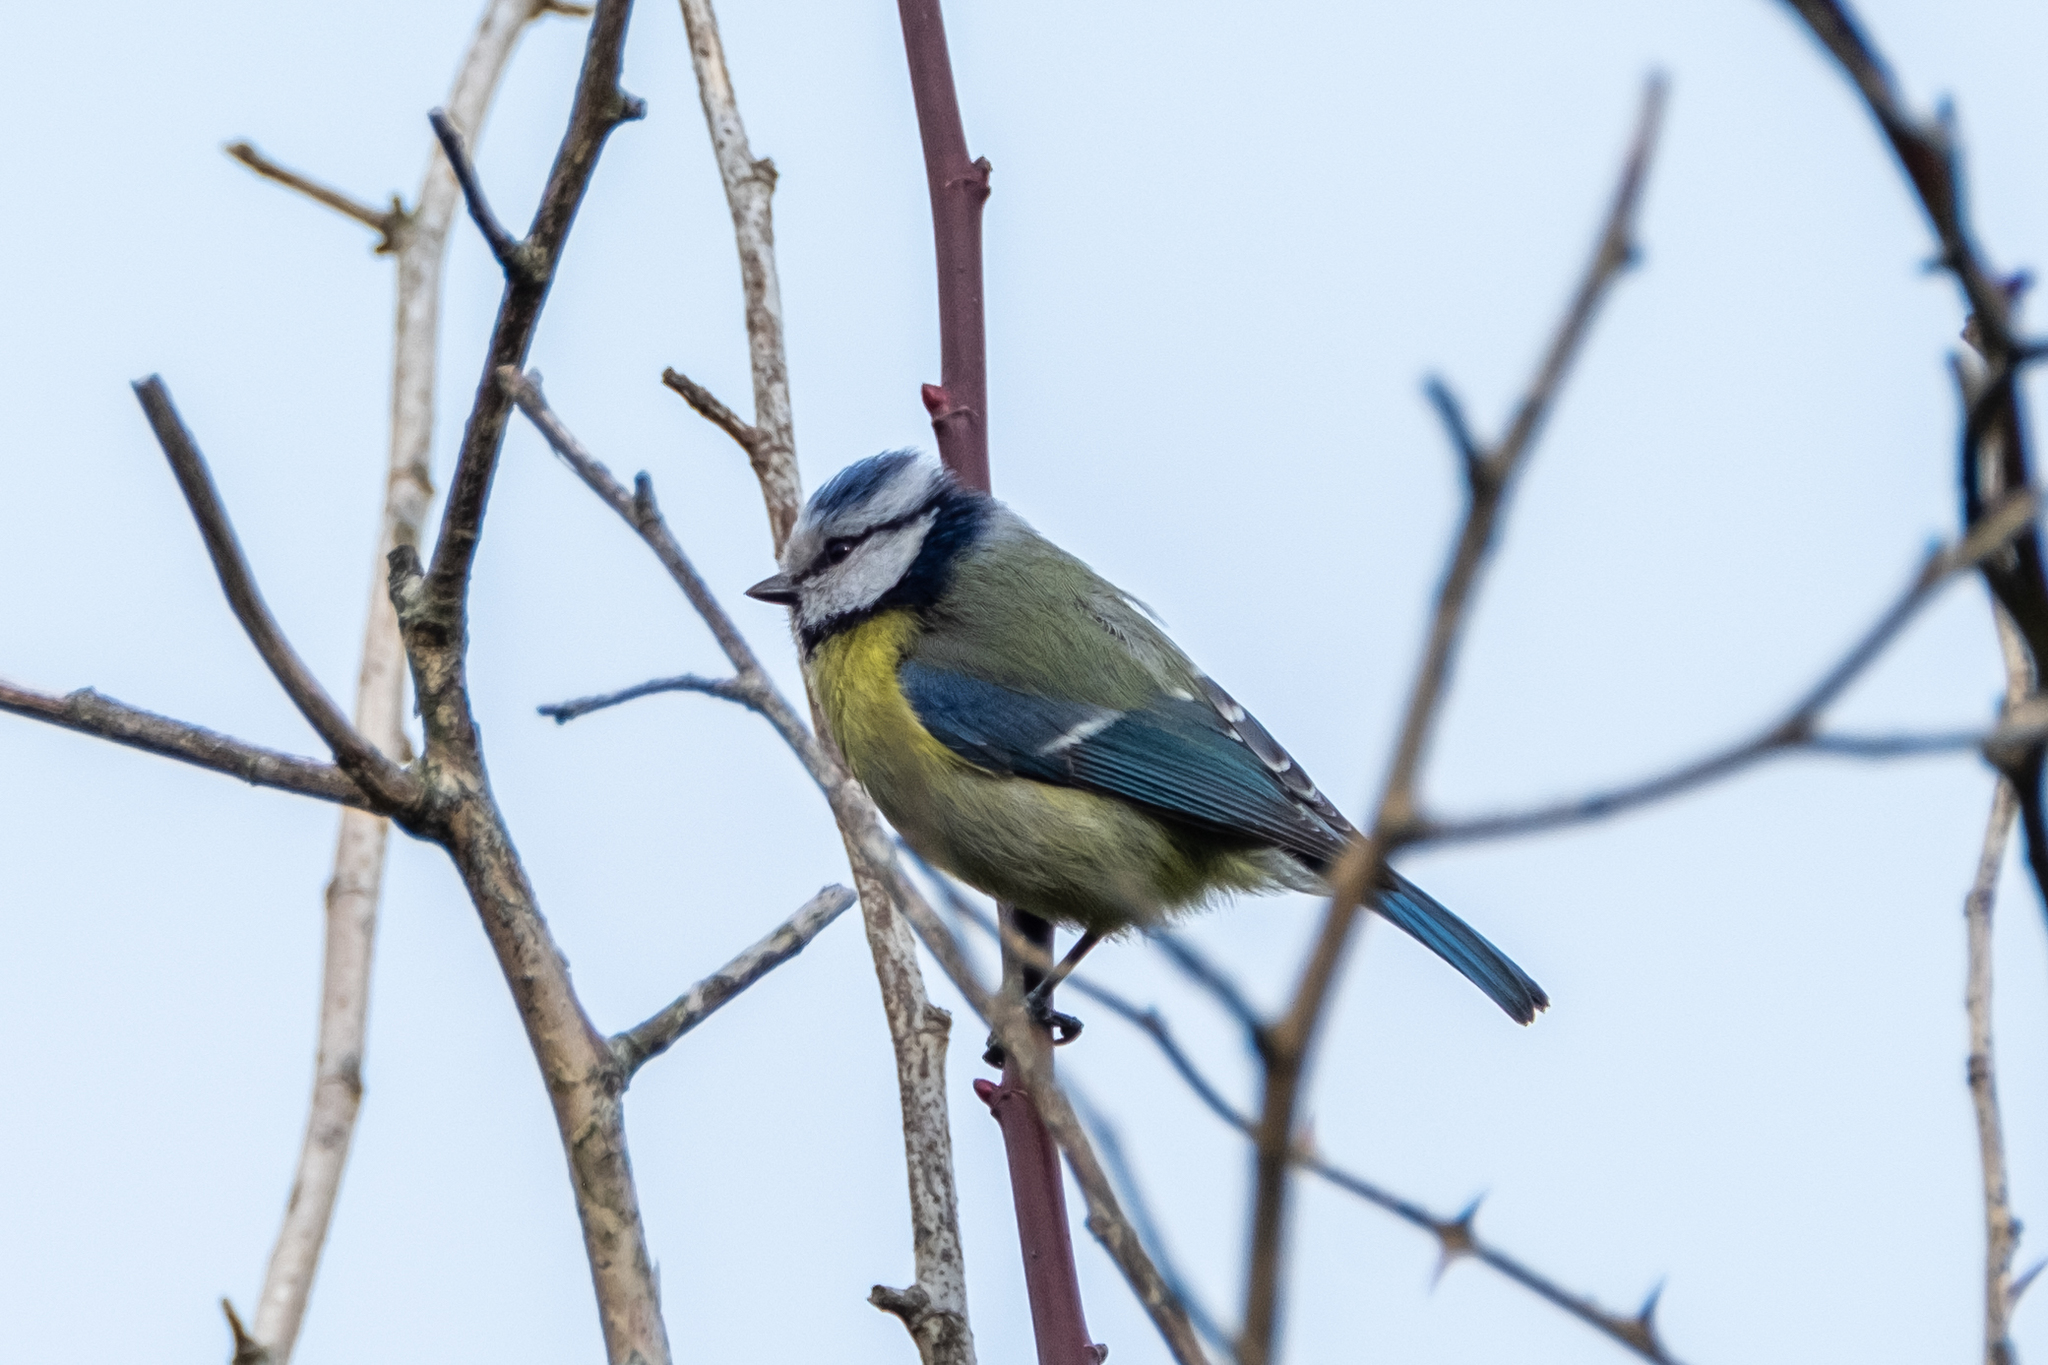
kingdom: Animalia
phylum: Chordata
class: Aves
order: Passeriformes
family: Paridae
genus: Cyanistes
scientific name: Cyanistes caeruleus
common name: Eurasian blue tit
